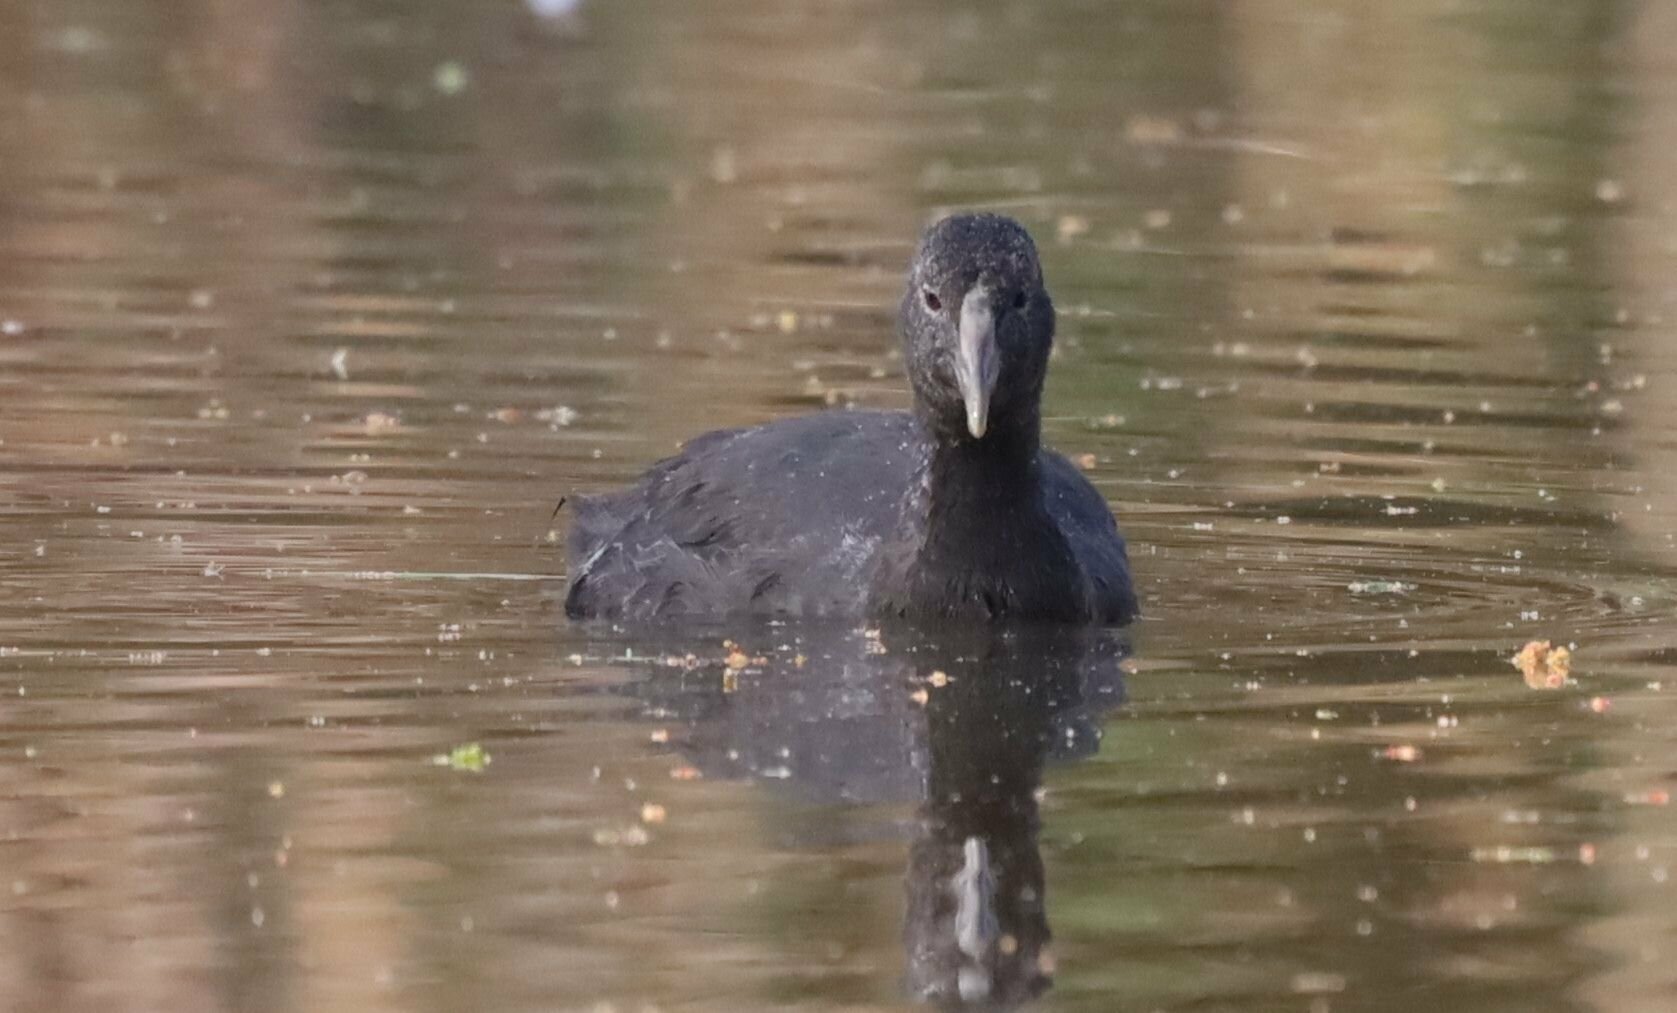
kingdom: Animalia
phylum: Chordata
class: Aves
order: Gruiformes
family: Rallidae
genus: Fulica
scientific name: Fulica cristata
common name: Red-knobbed coot
